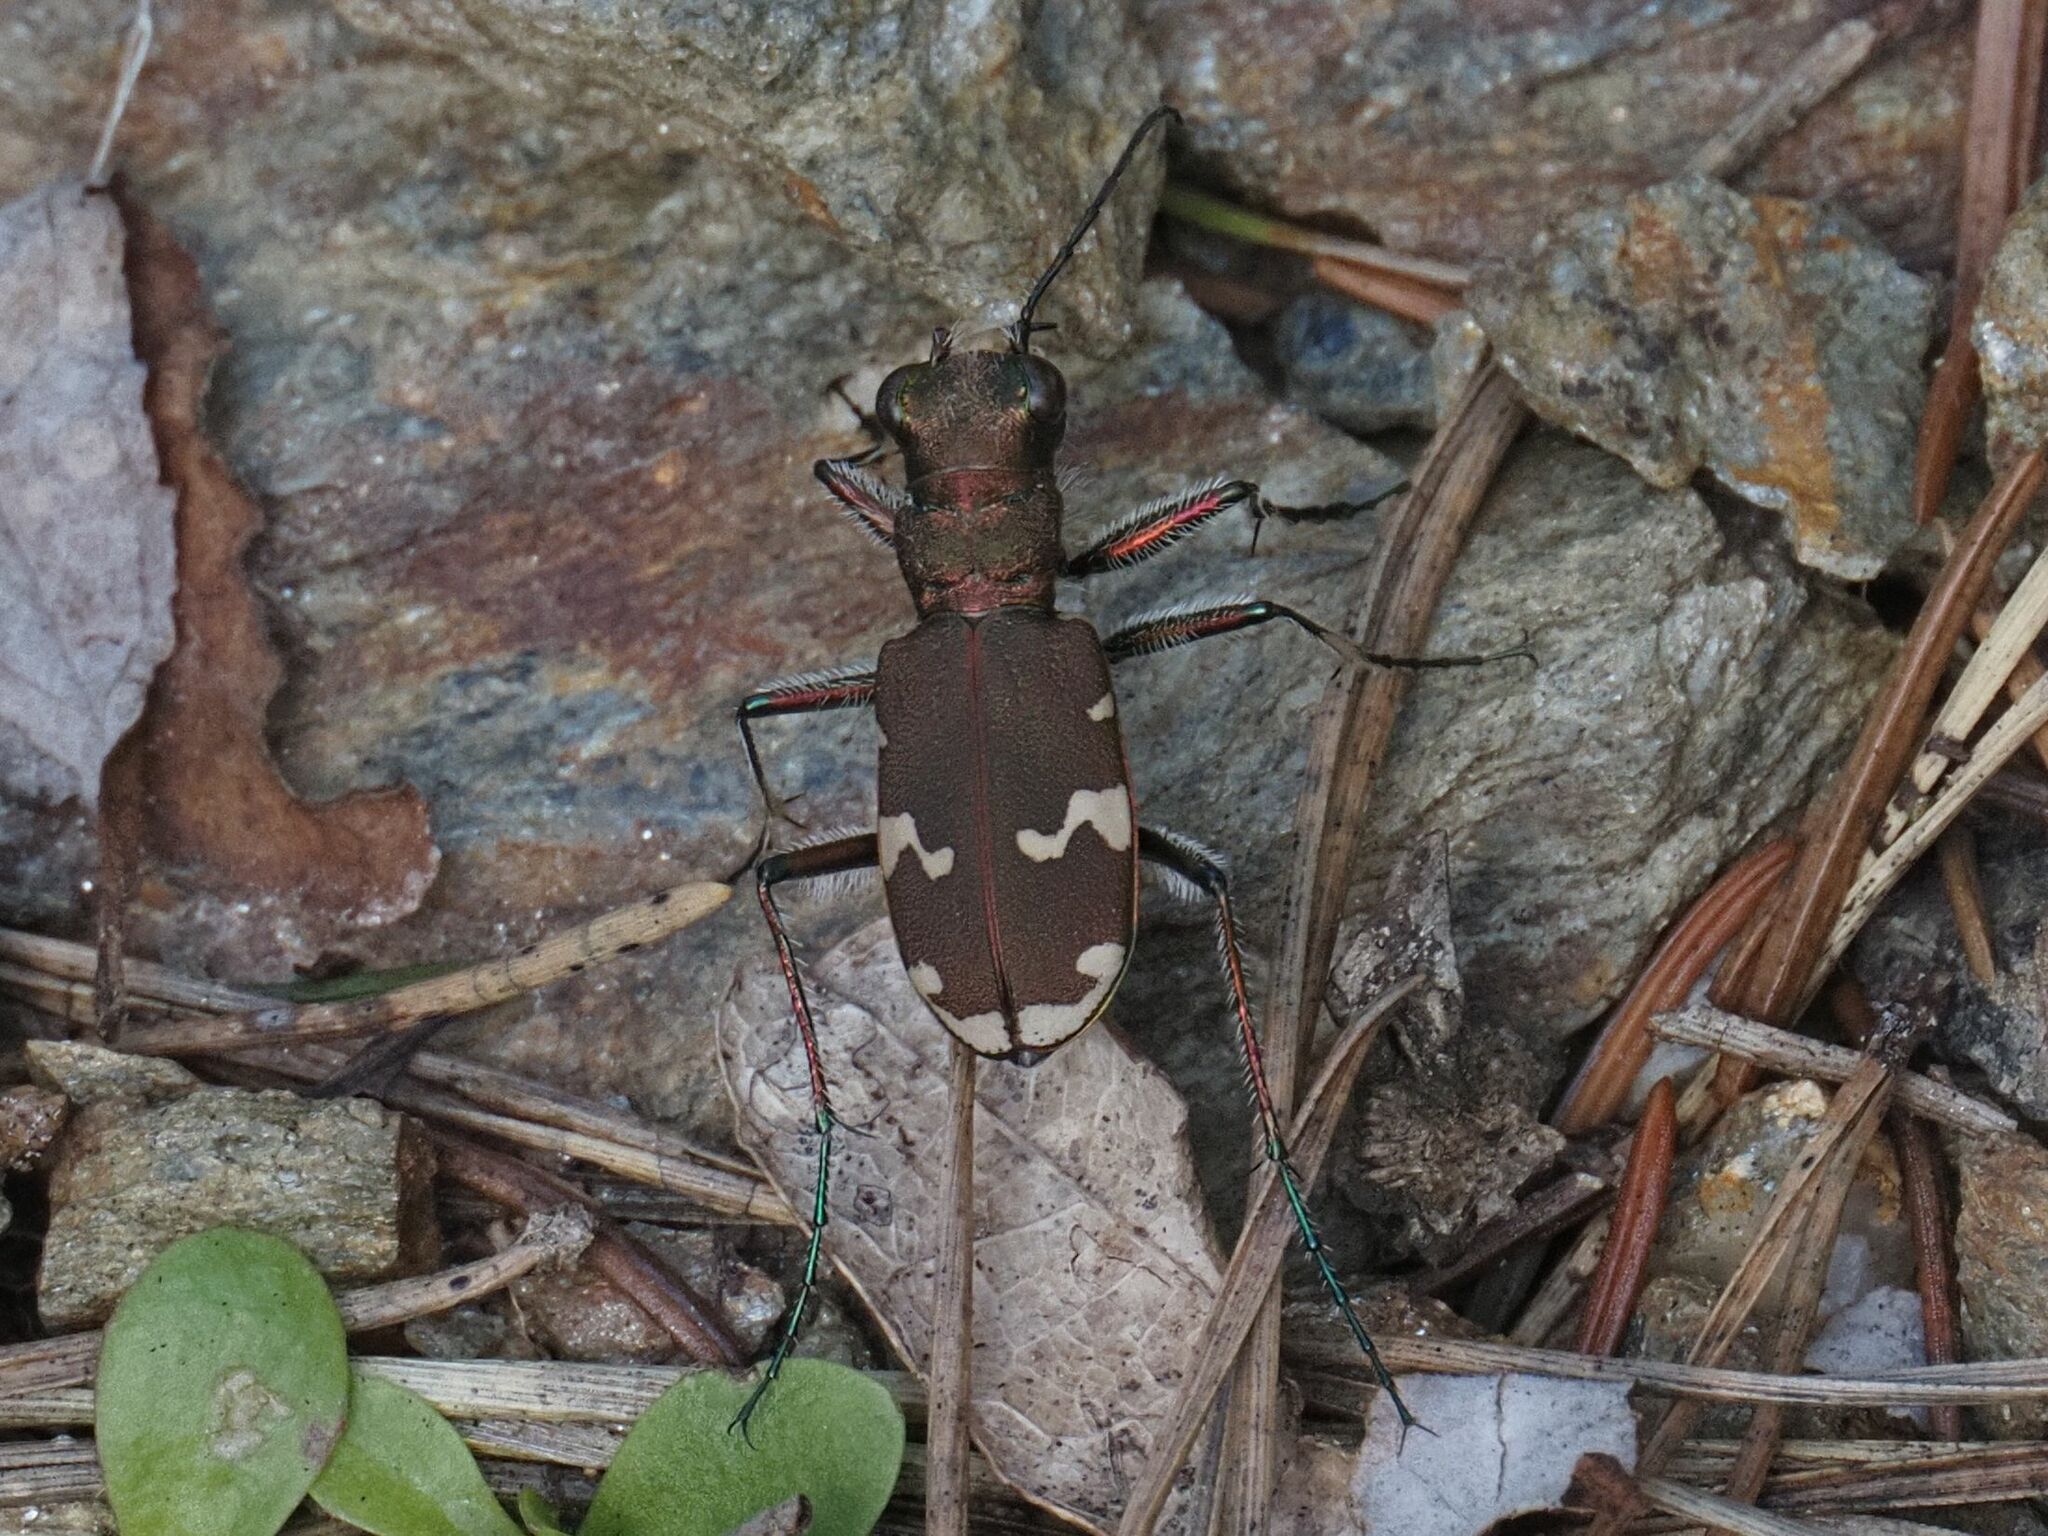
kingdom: Animalia
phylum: Arthropoda
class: Insecta
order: Coleoptera
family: Carabidae
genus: Cicindela
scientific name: Cicindela sylvicola
